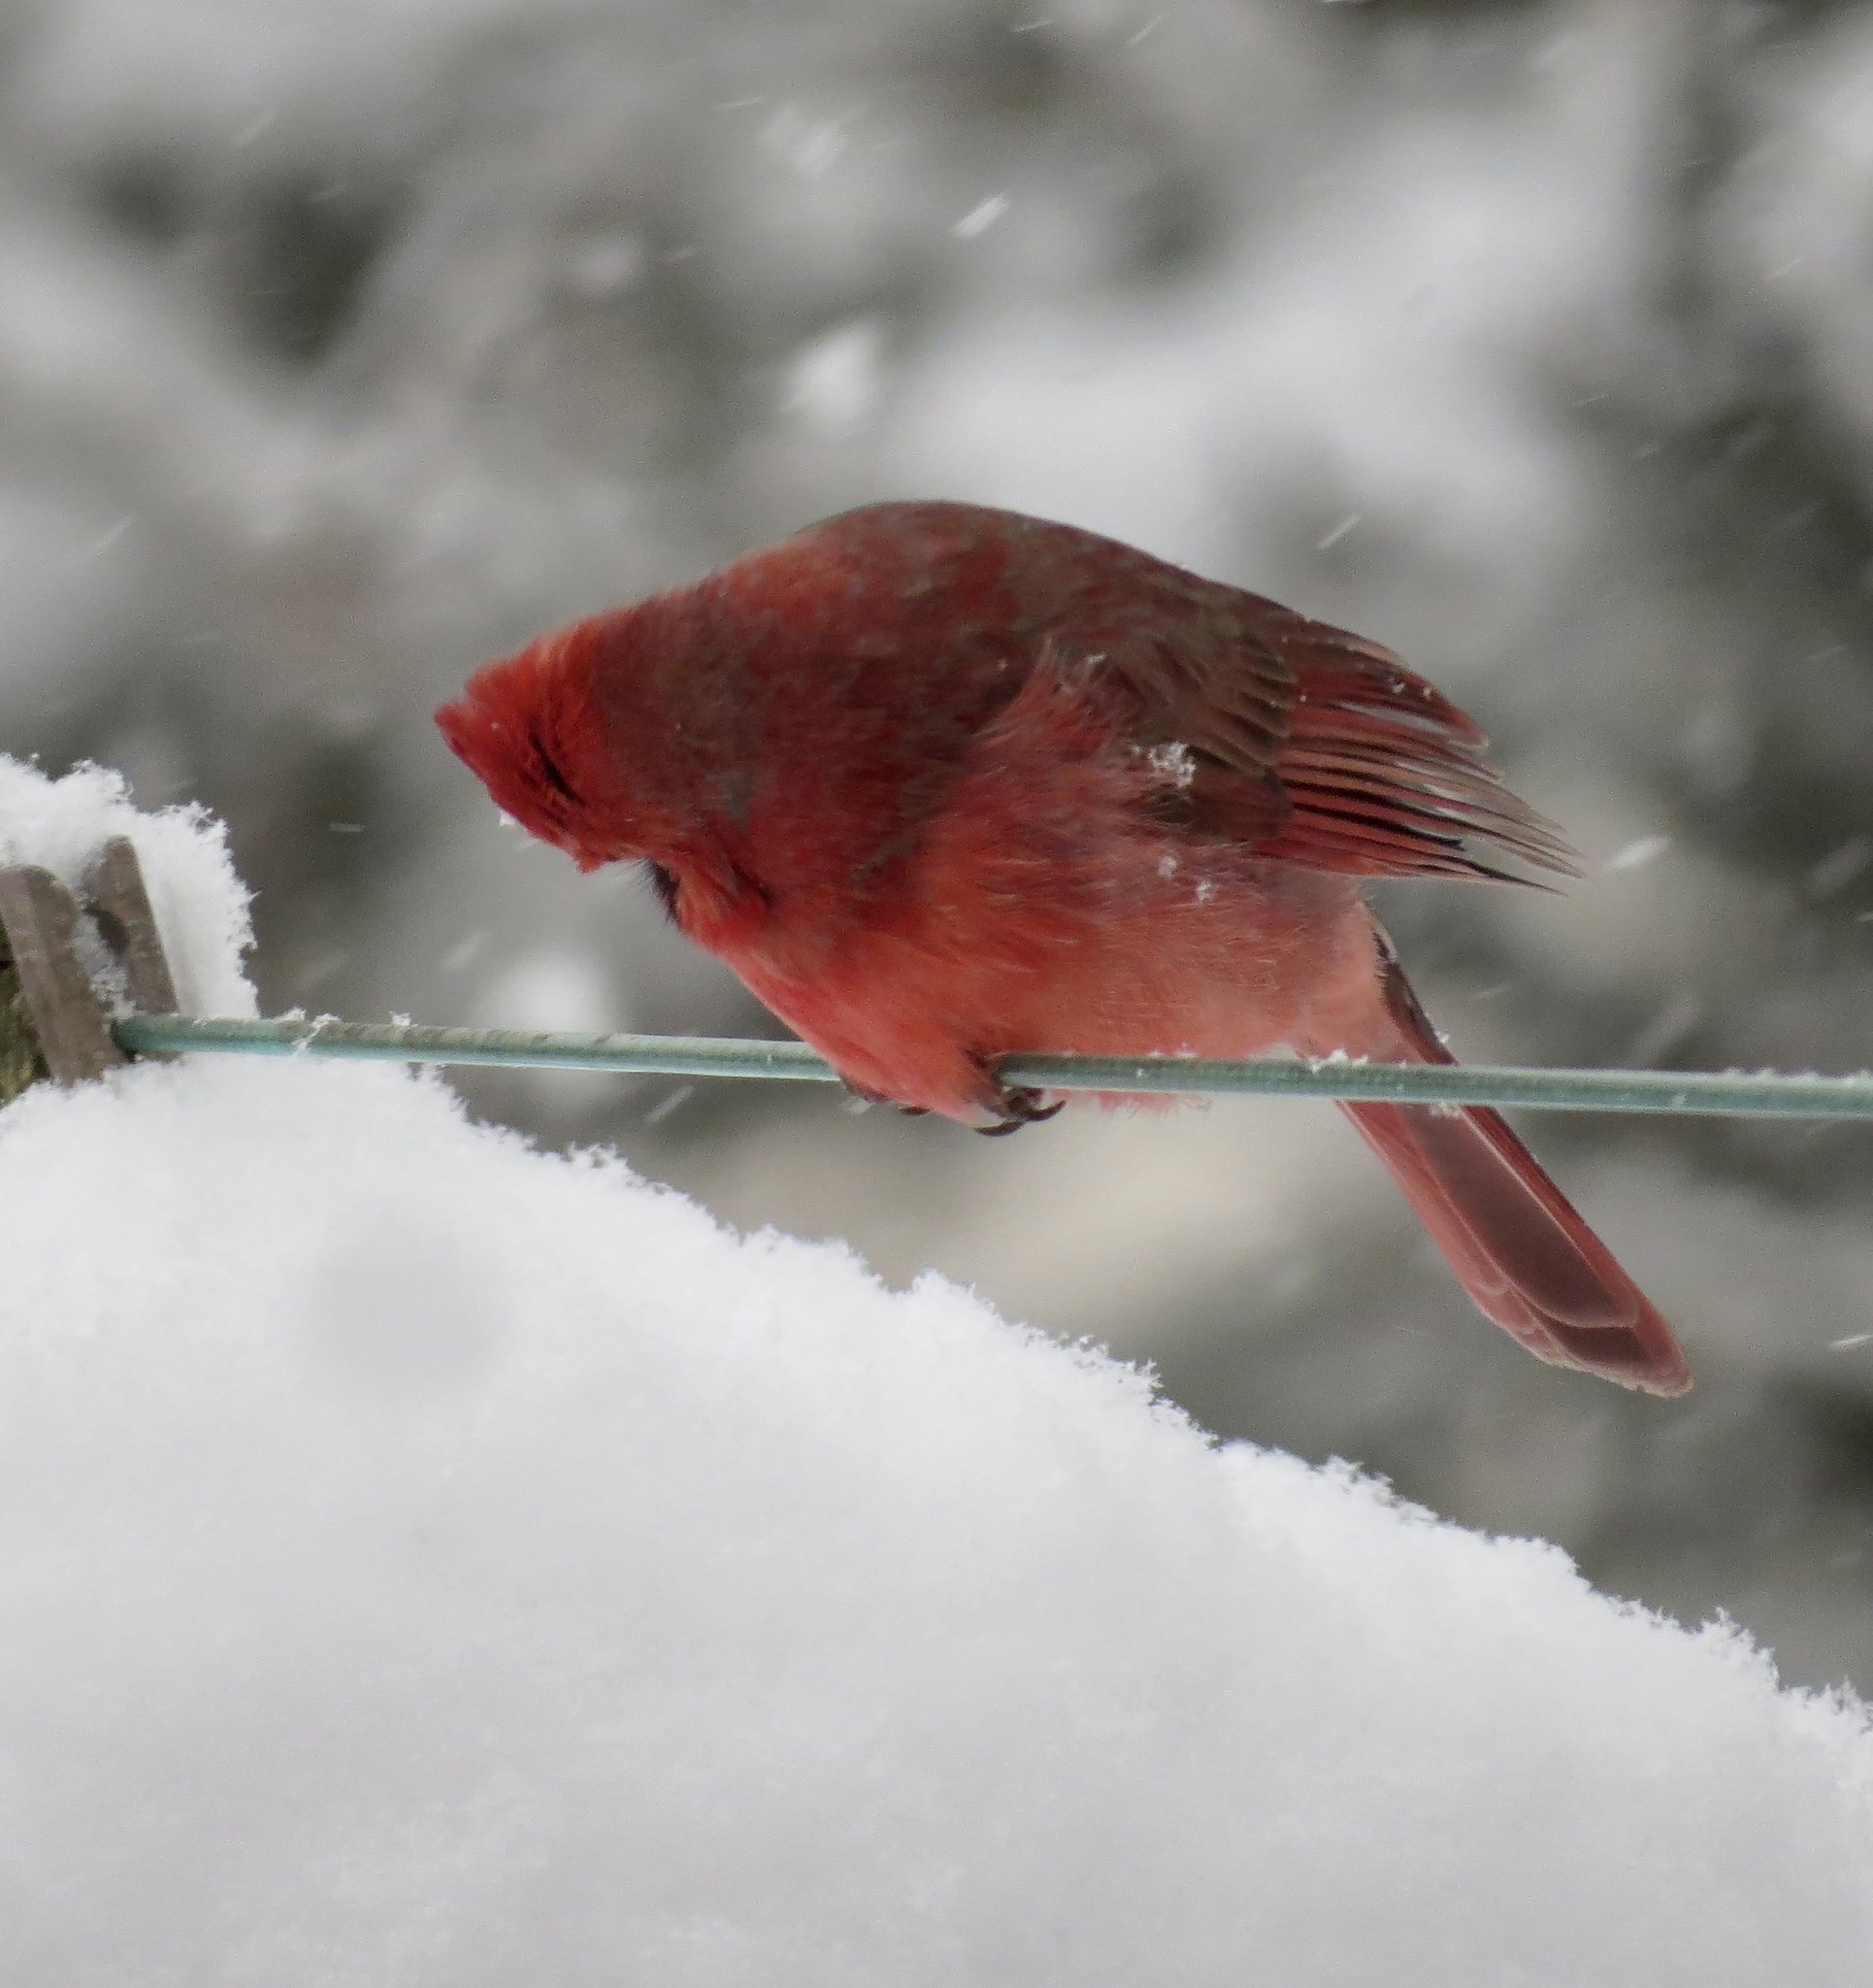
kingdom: Animalia
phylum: Chordata
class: Aves
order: Passeriformes
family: Cardinalidae
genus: Cardinalis
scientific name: Cardinalis cardinalis
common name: Northern cardinal
